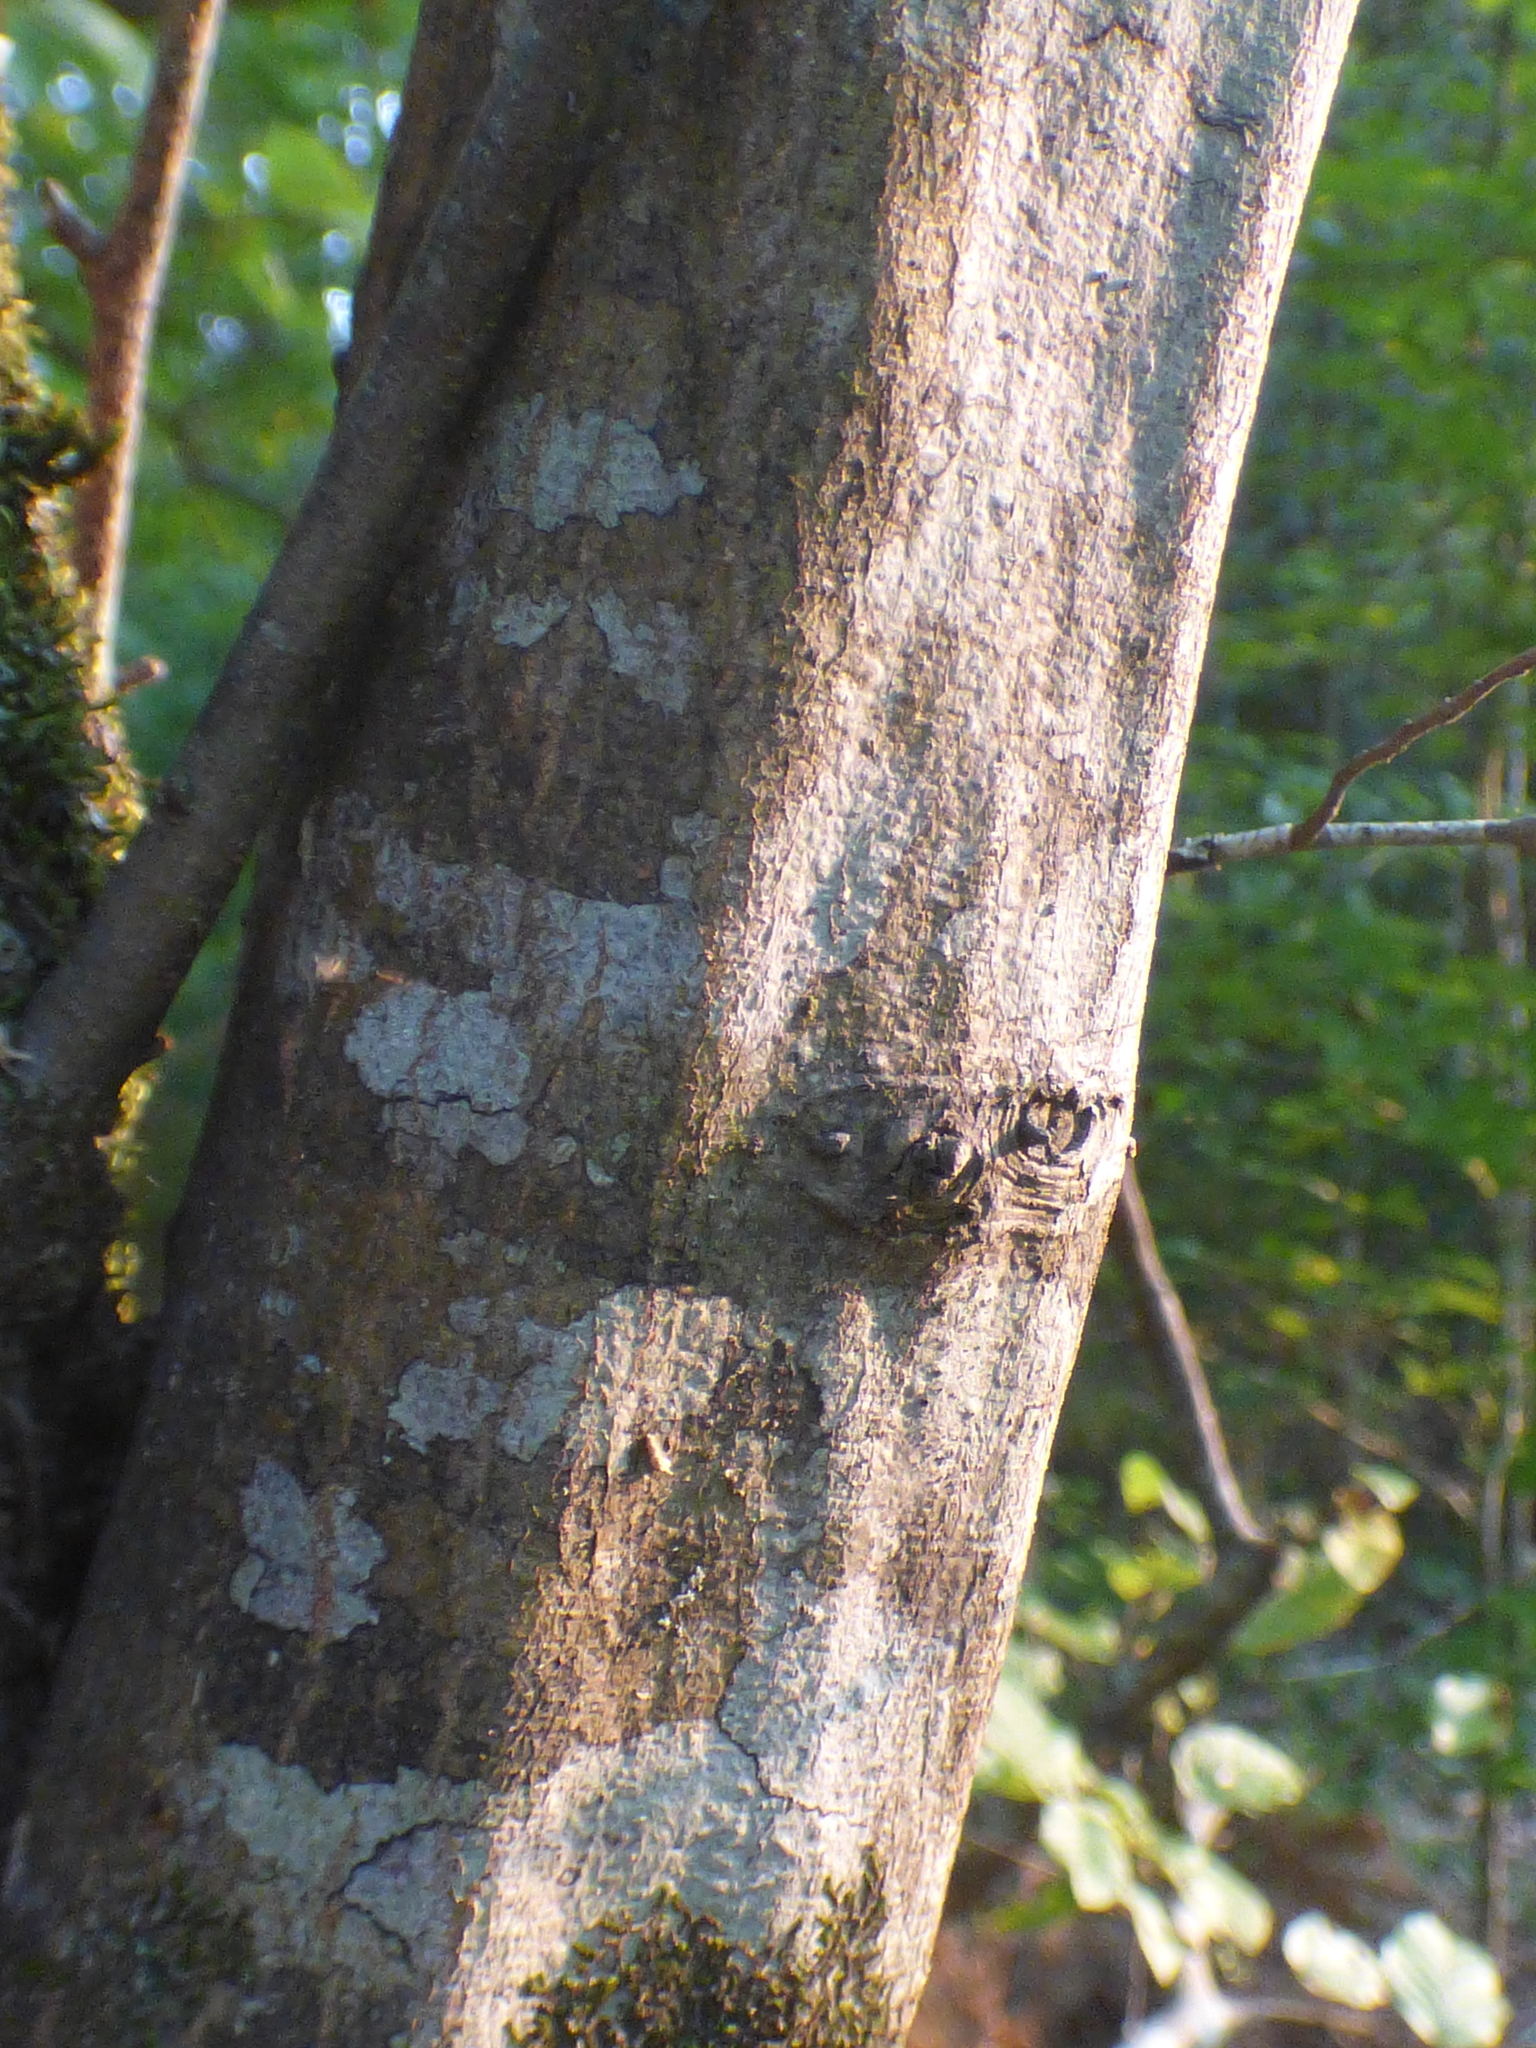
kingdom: Plantae
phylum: Tracheophyta
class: Magnoliopsida
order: Fagales
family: Betulaceae
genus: Carpinus
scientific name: Carpinus caroliniana
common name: American hornbeam
